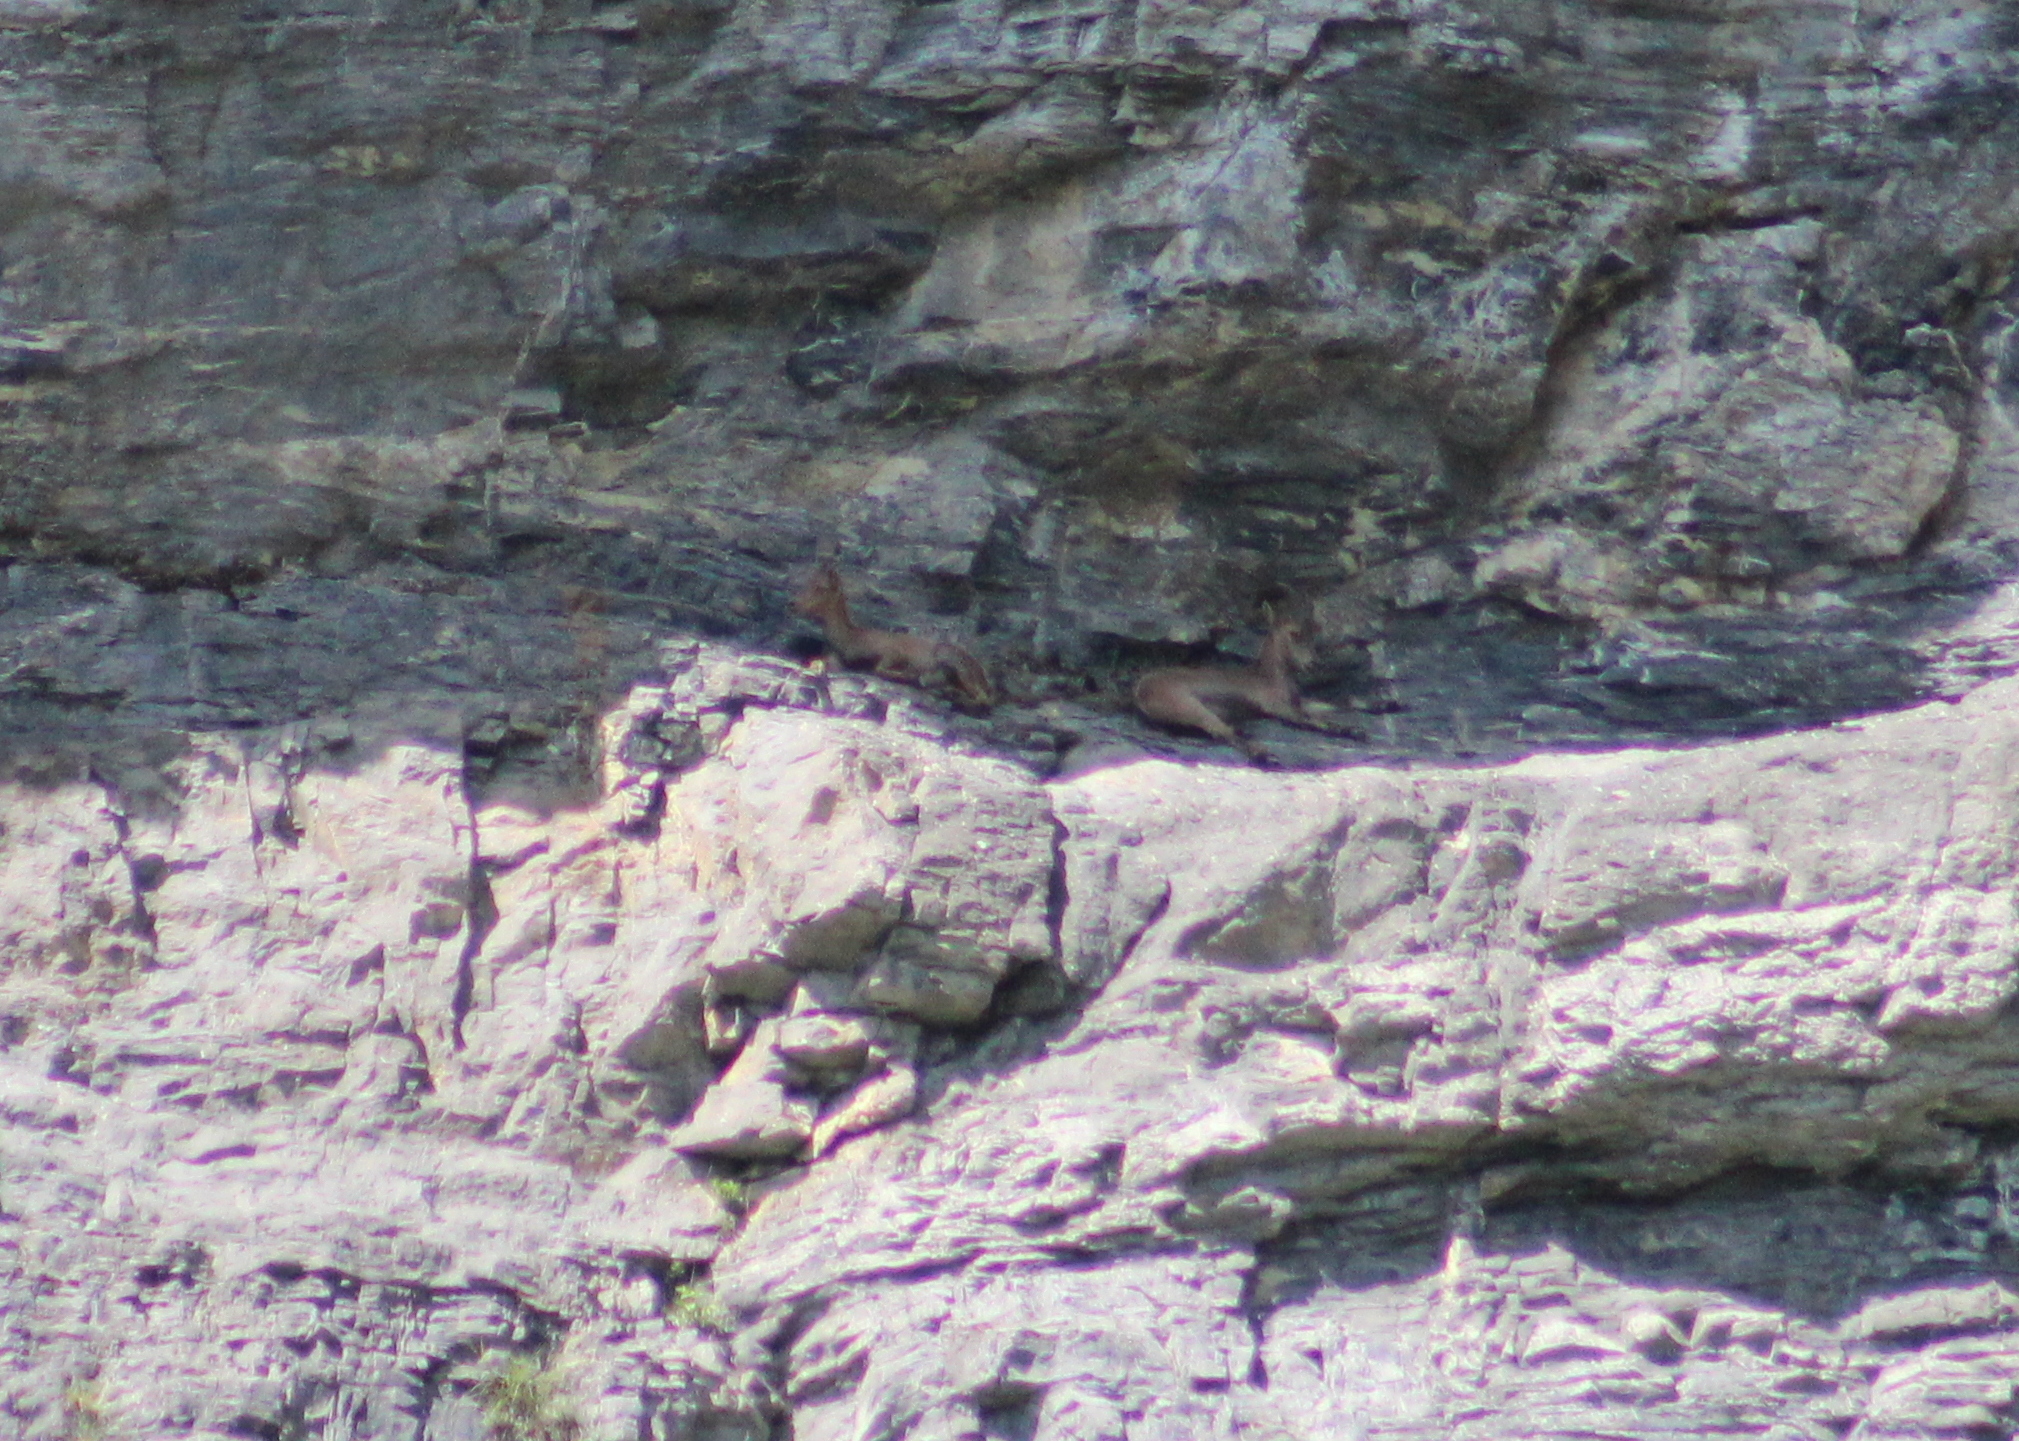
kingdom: Animalia
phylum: Chordata
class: Mammalia
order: Artiodactyla
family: Bovidae
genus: Capra
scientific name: Capra ibex
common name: Alpine ibex
